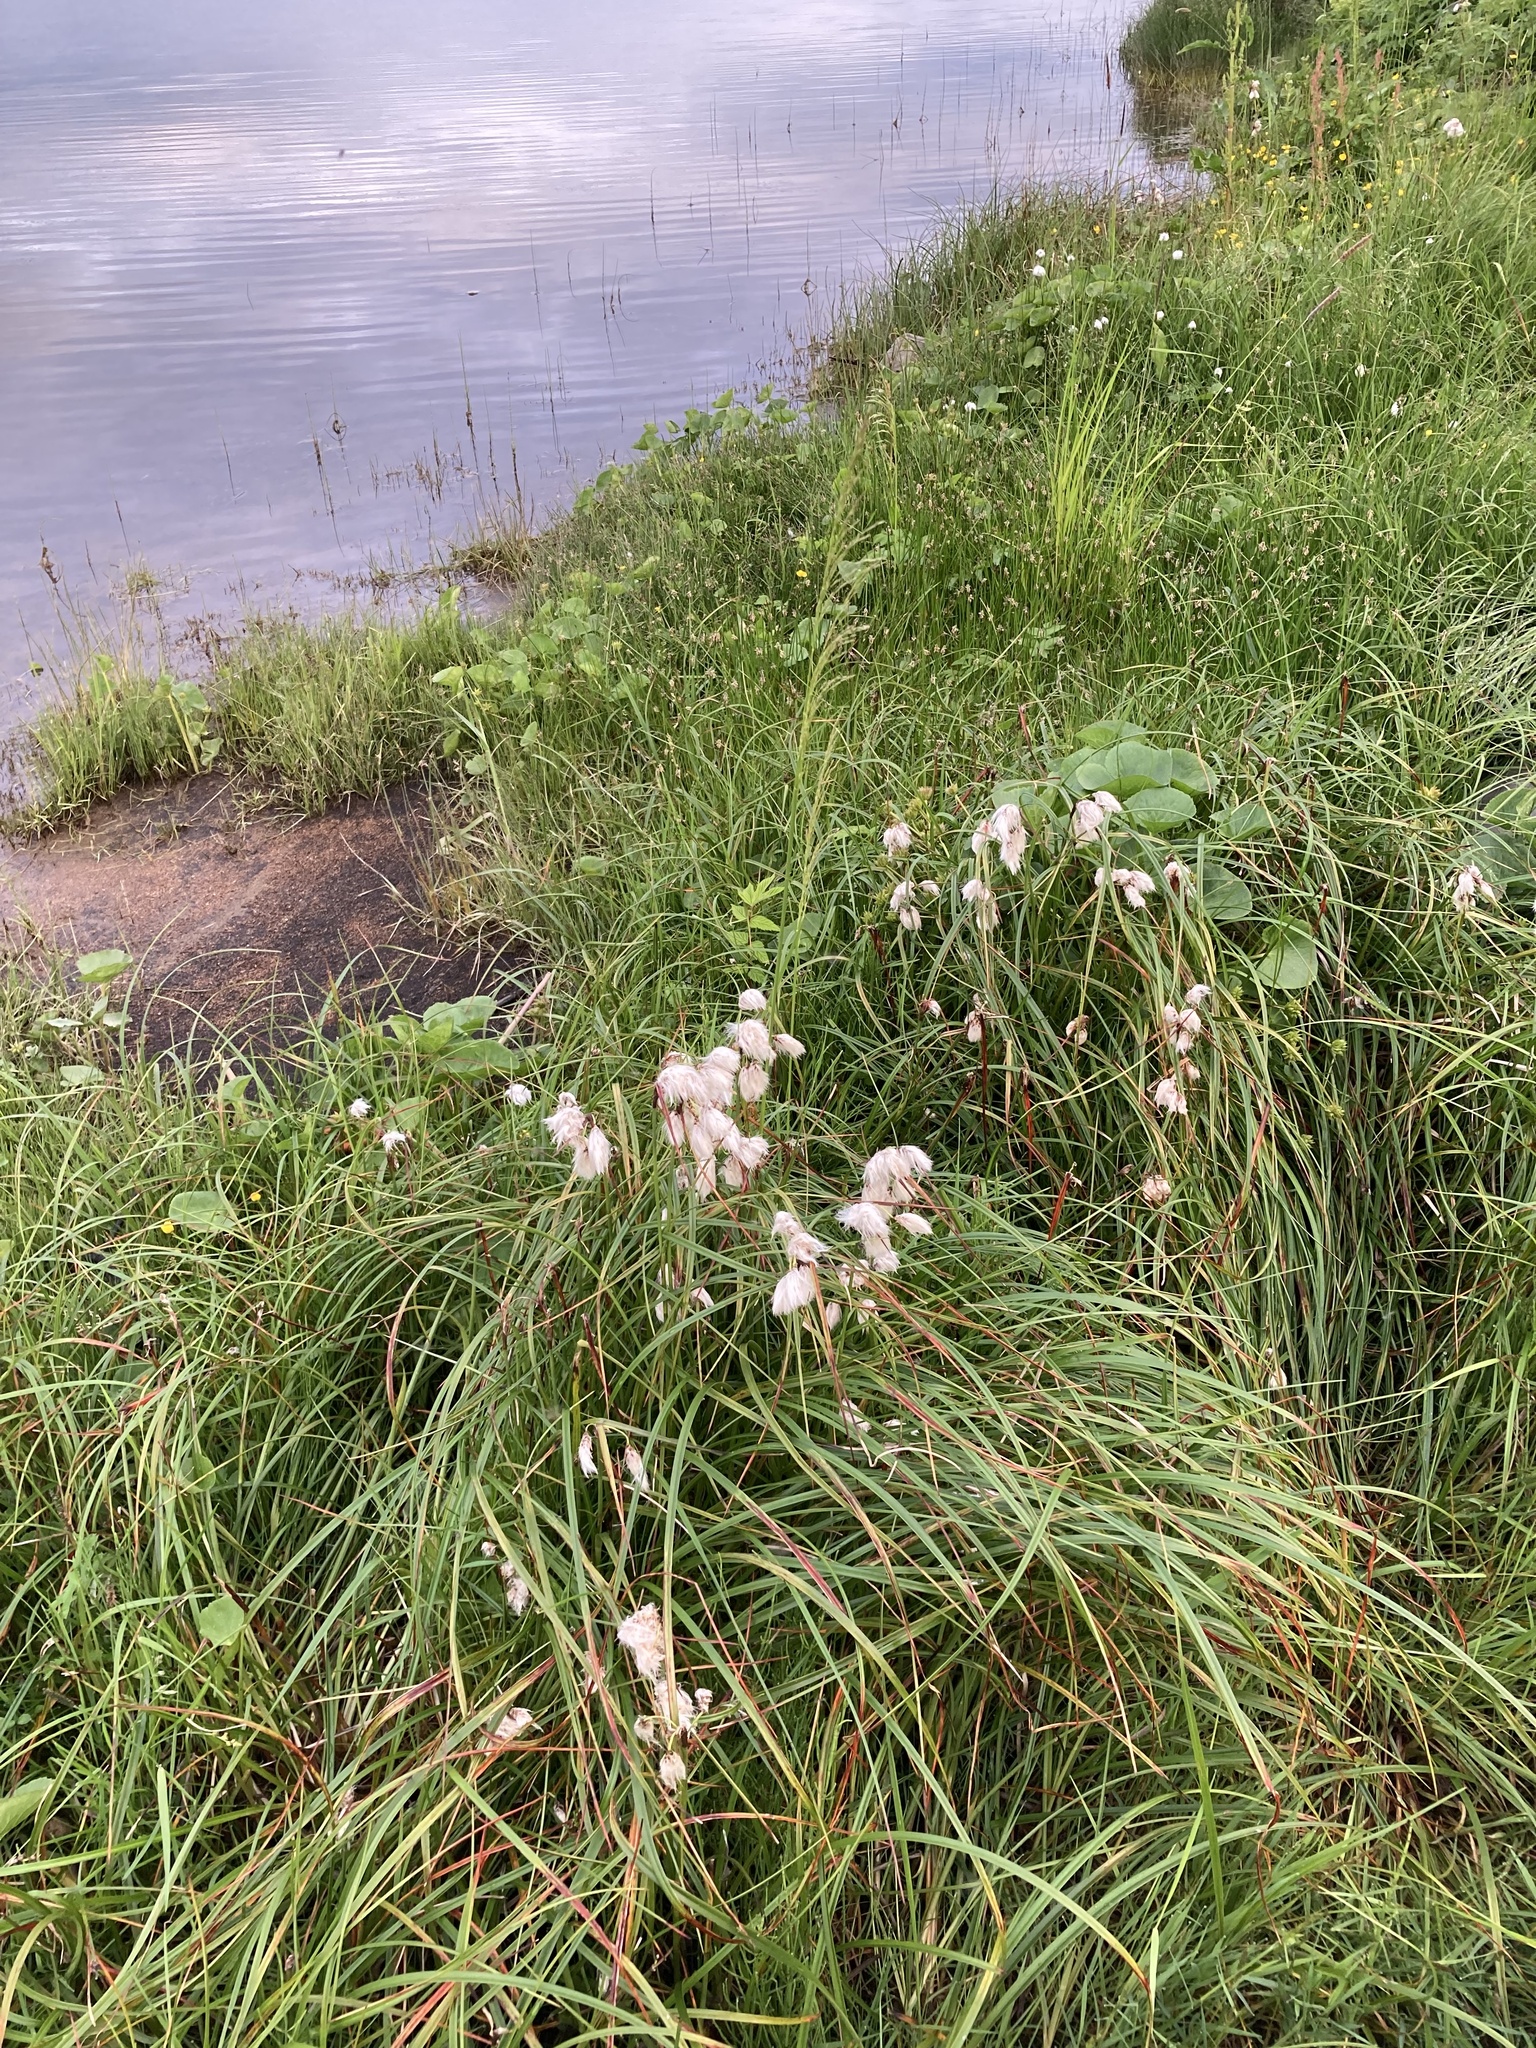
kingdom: Plantae
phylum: Tracheophyta
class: Liliopsida
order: Poales
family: Cyperaceae
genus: Eriophorum
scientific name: Eriophorum angustifolium
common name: Common cottongrass
